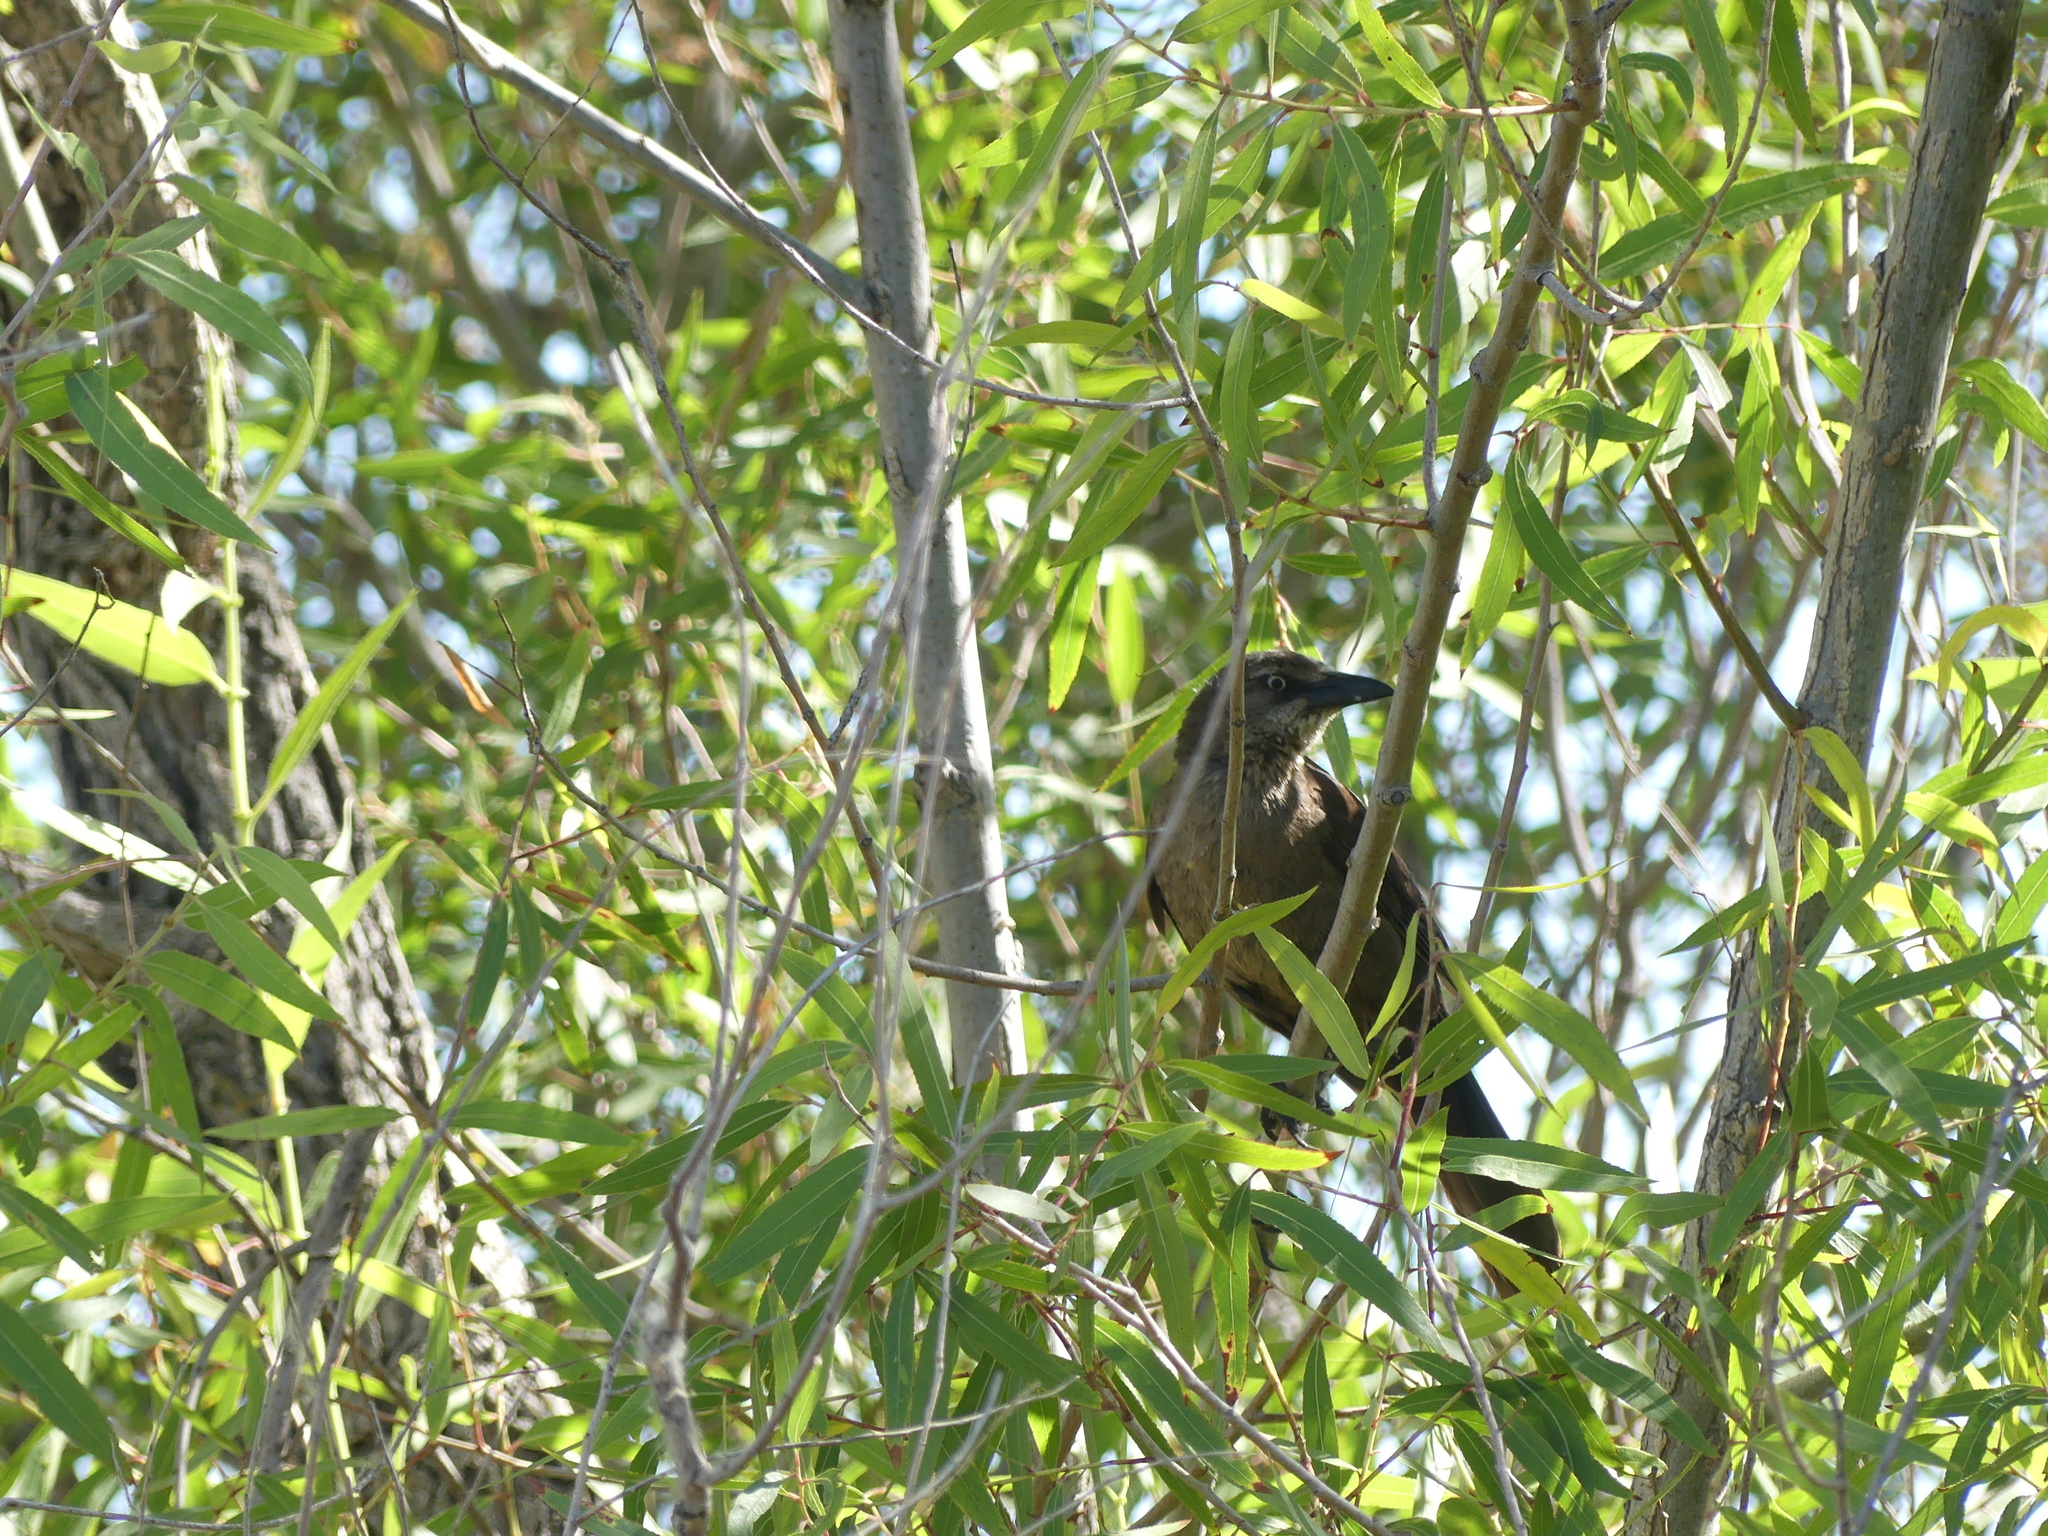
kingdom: Animalia
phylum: Chordata
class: Aves
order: Passeriformes
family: Icteridae
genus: Quiscalus
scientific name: Quiscalus mexicanus
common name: Great-tailed grackle
